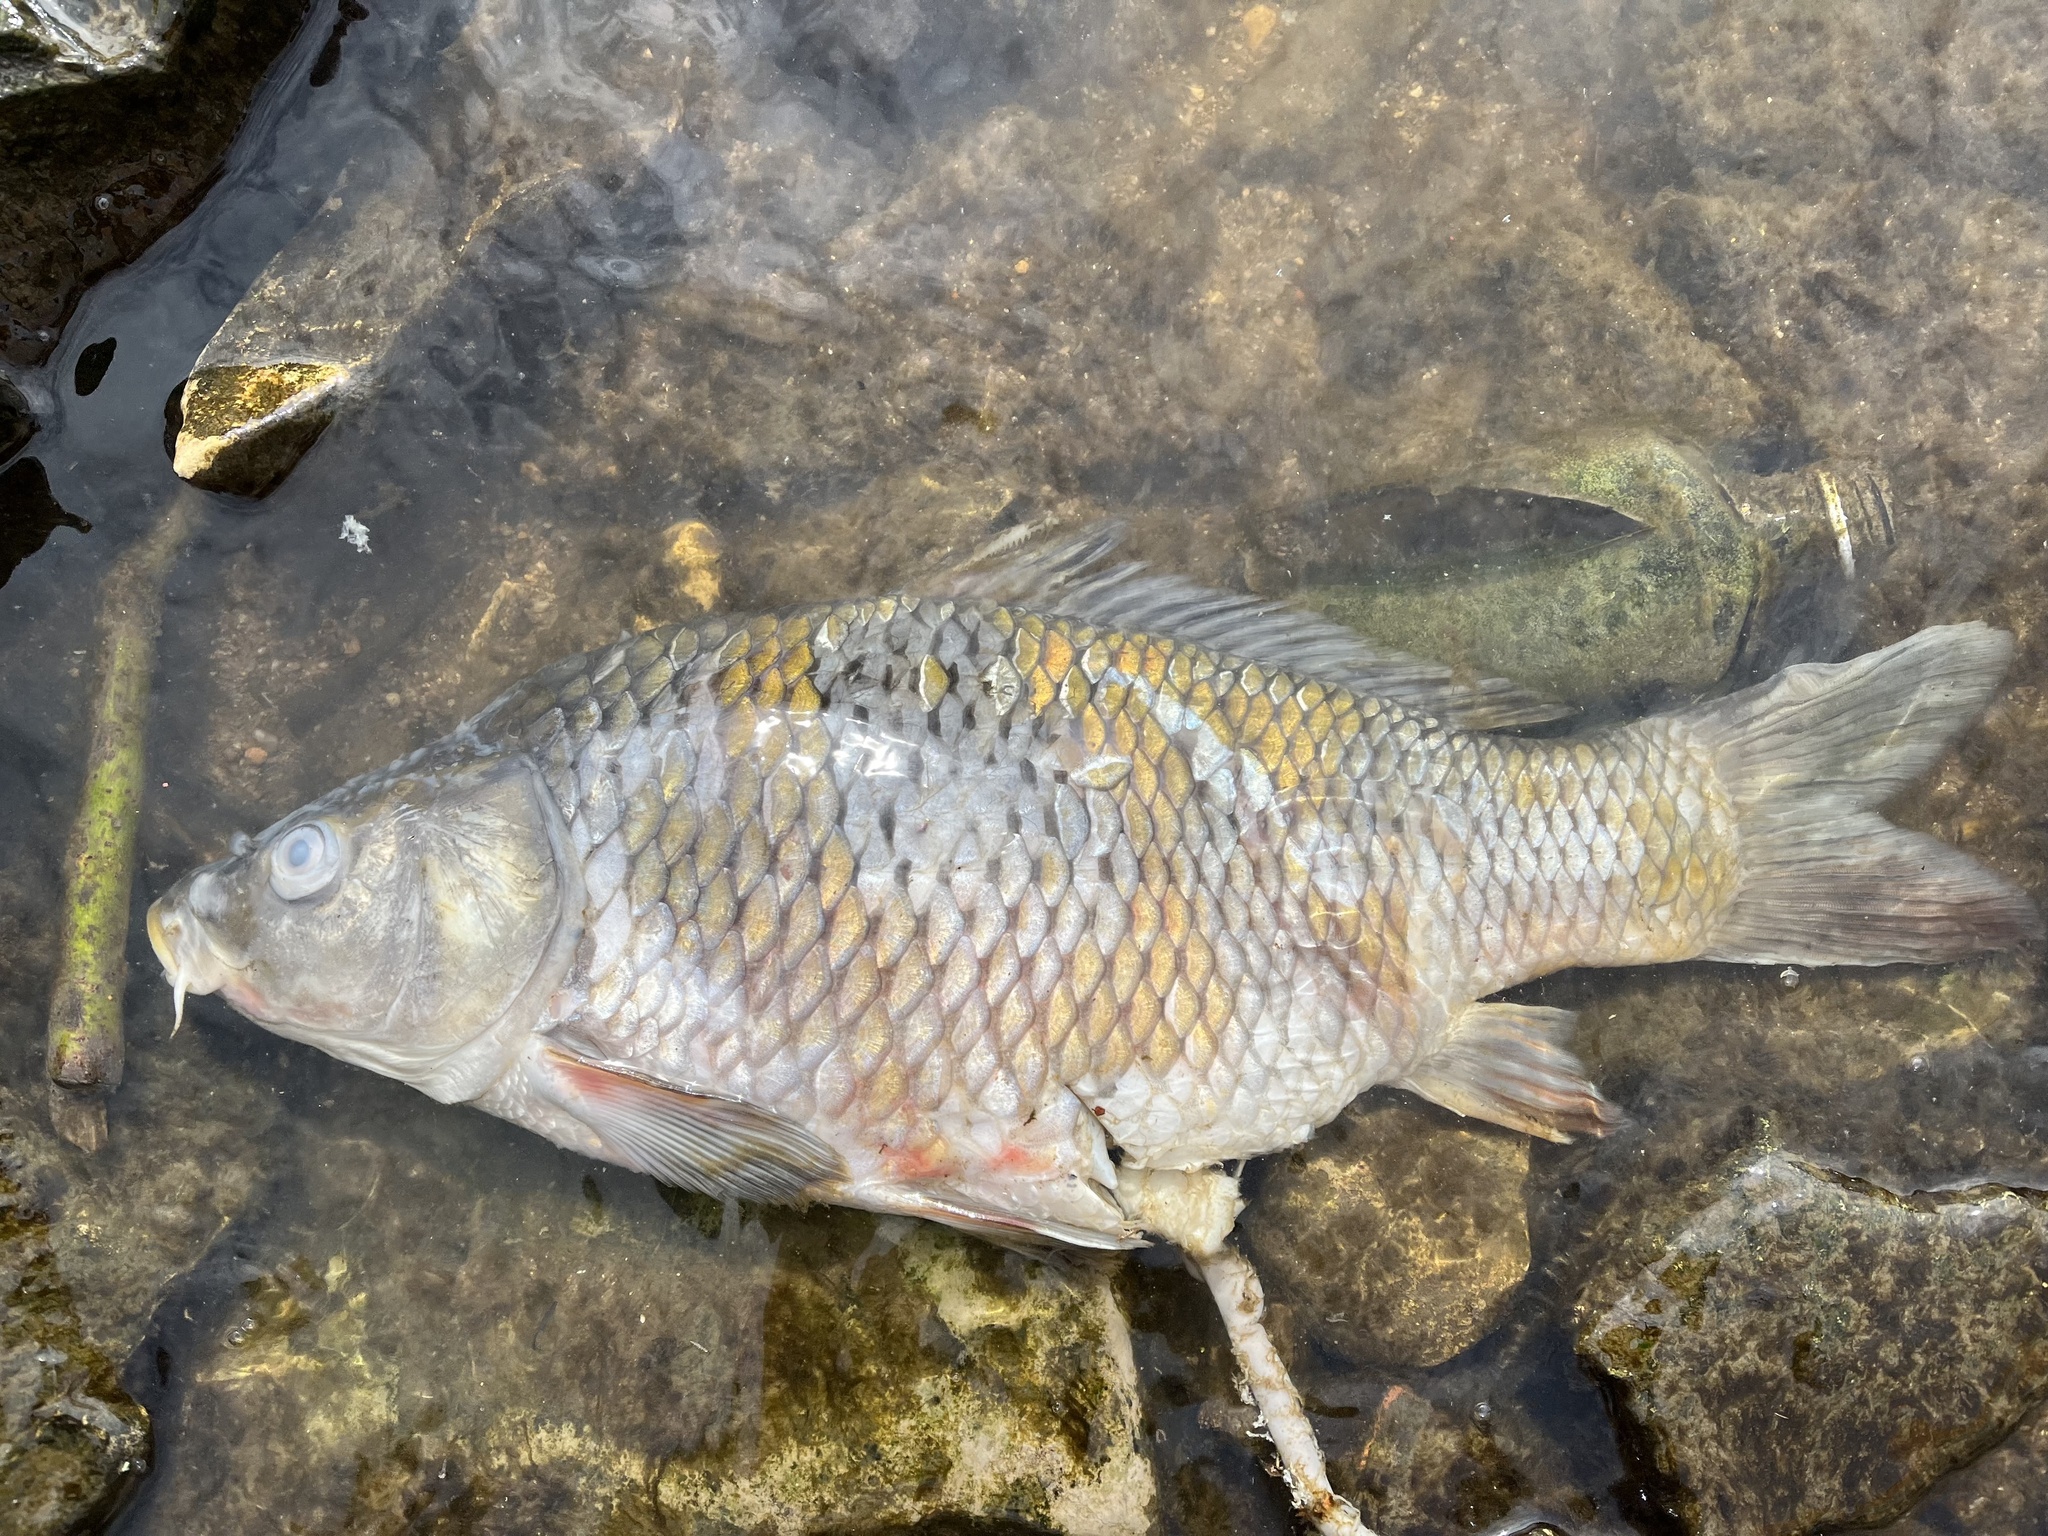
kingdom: Animalia
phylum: Chordata
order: Cypriniformes
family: Cyprinidae
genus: Cyprinus
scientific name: Cyprinus carpio
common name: Common carp
